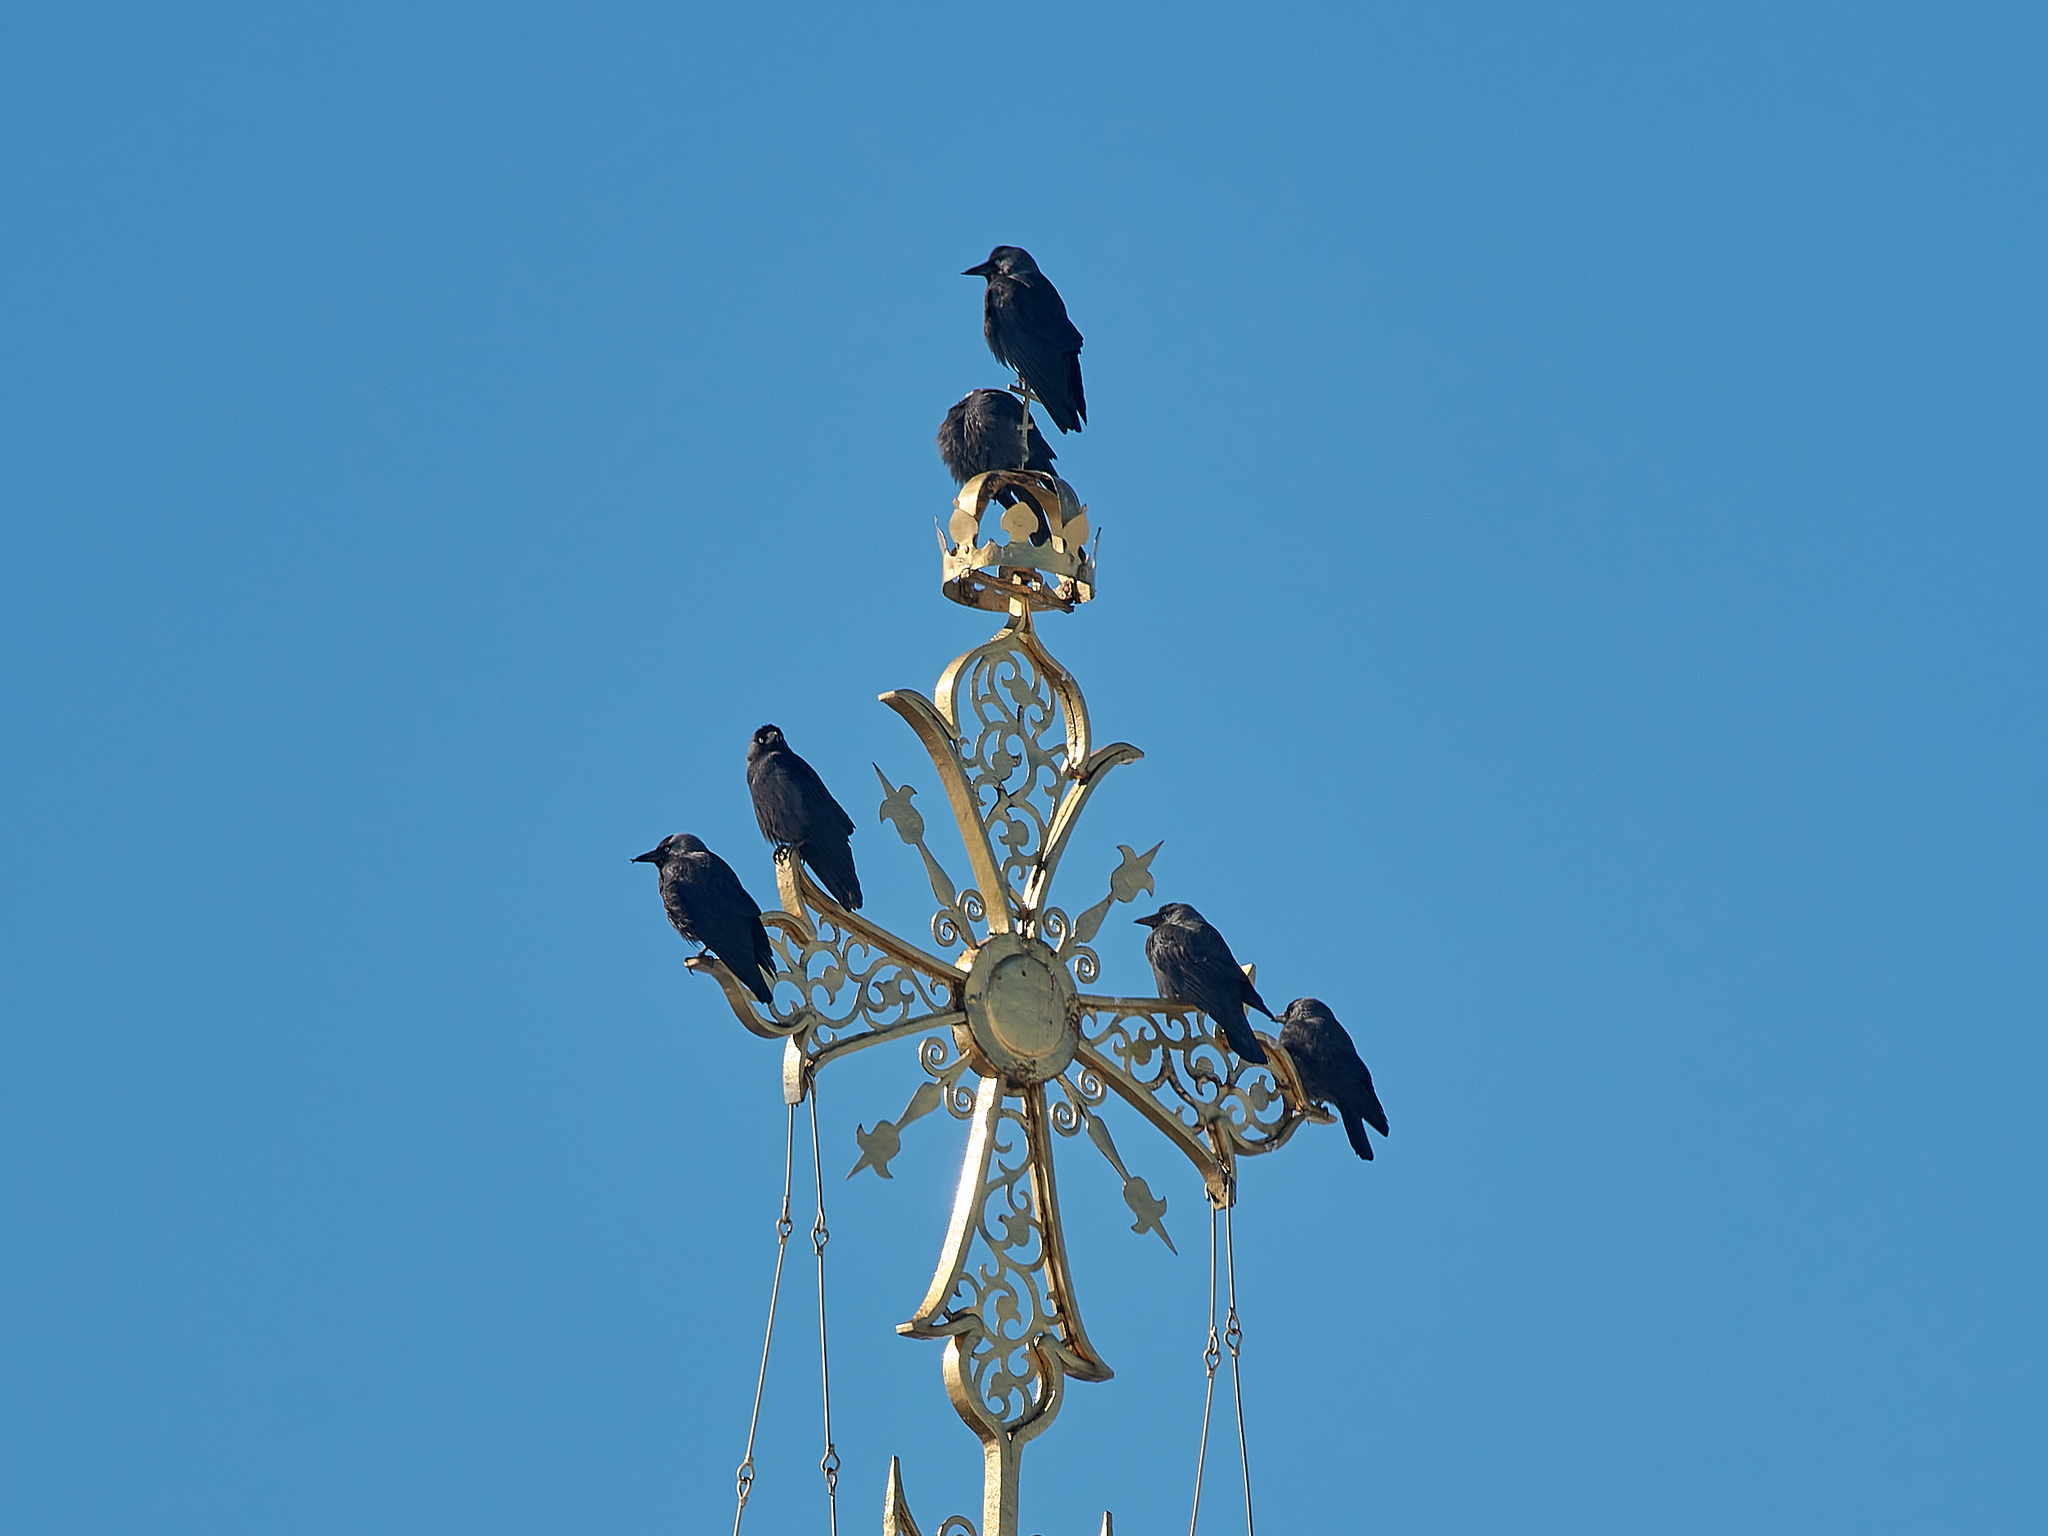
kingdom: Animalia
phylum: Chordata
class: Aves
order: Passeriformes
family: Corvidae
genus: Coloeus
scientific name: Coloeus monedula
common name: Western jackdaw
